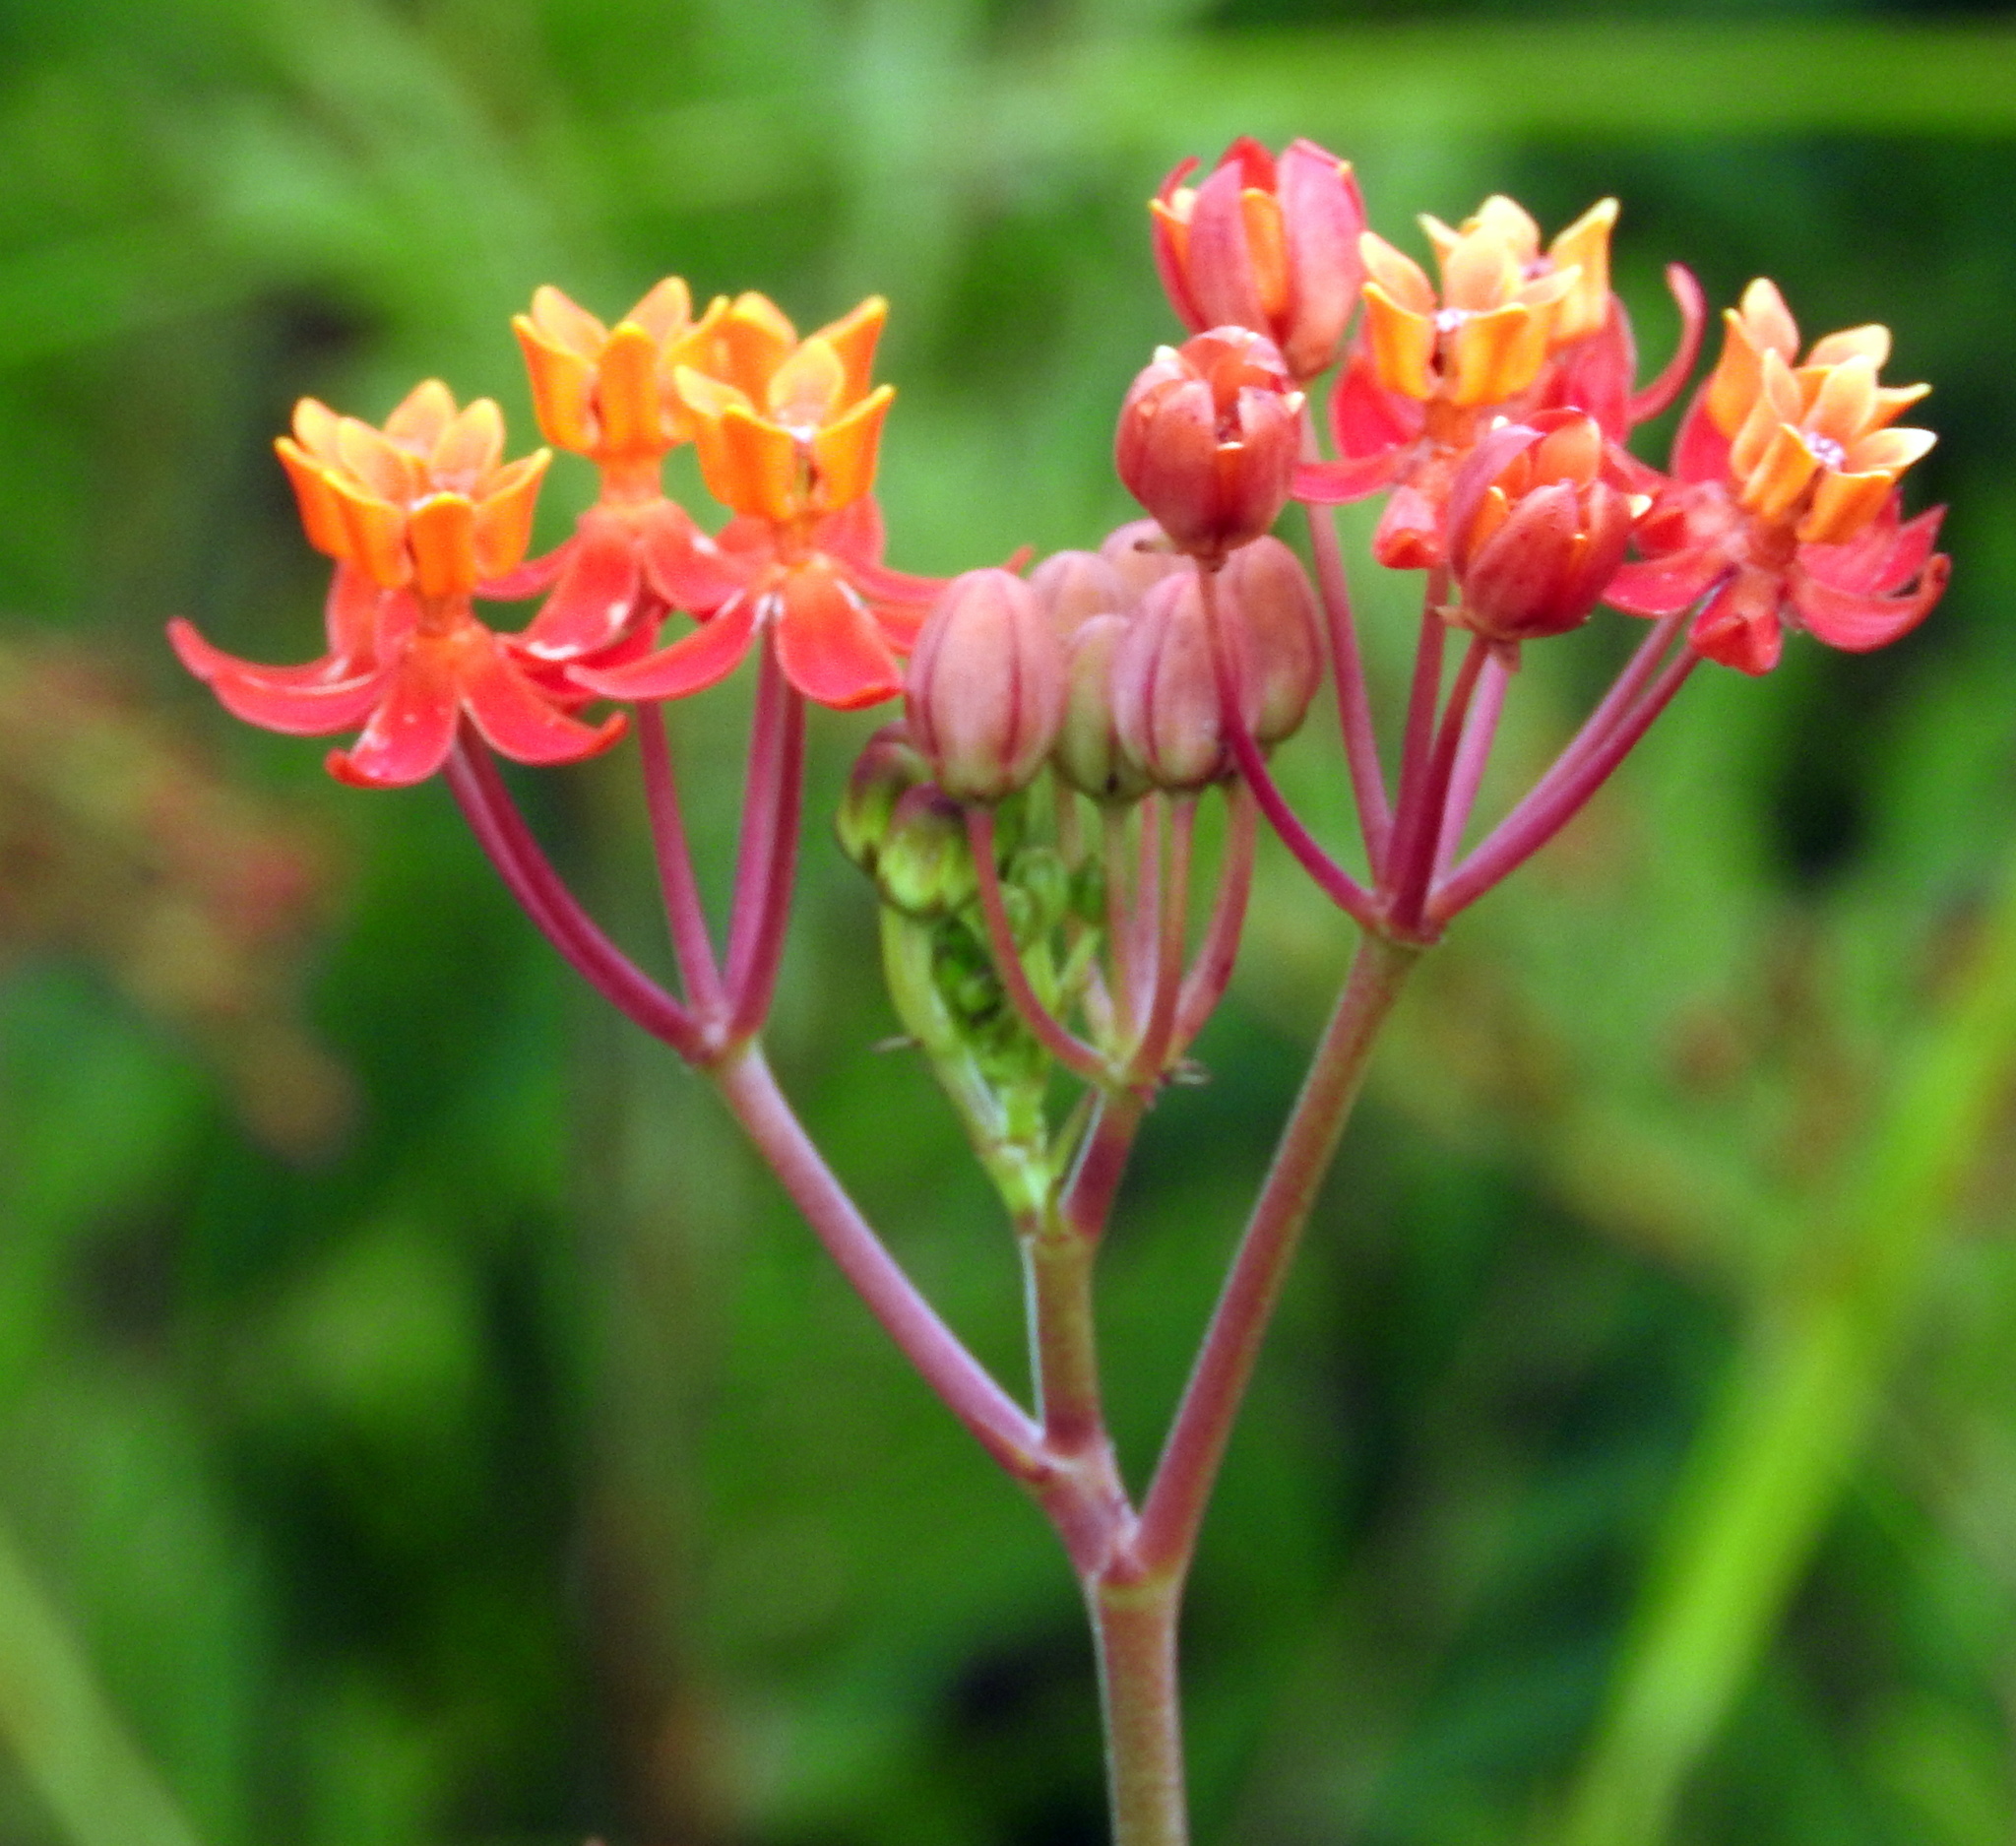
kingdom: Plantae
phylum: Tracheophyta
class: Magnoliopsida
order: Gentianales
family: Apocynaceae
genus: Asclepias
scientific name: Asclepias lanceolata
